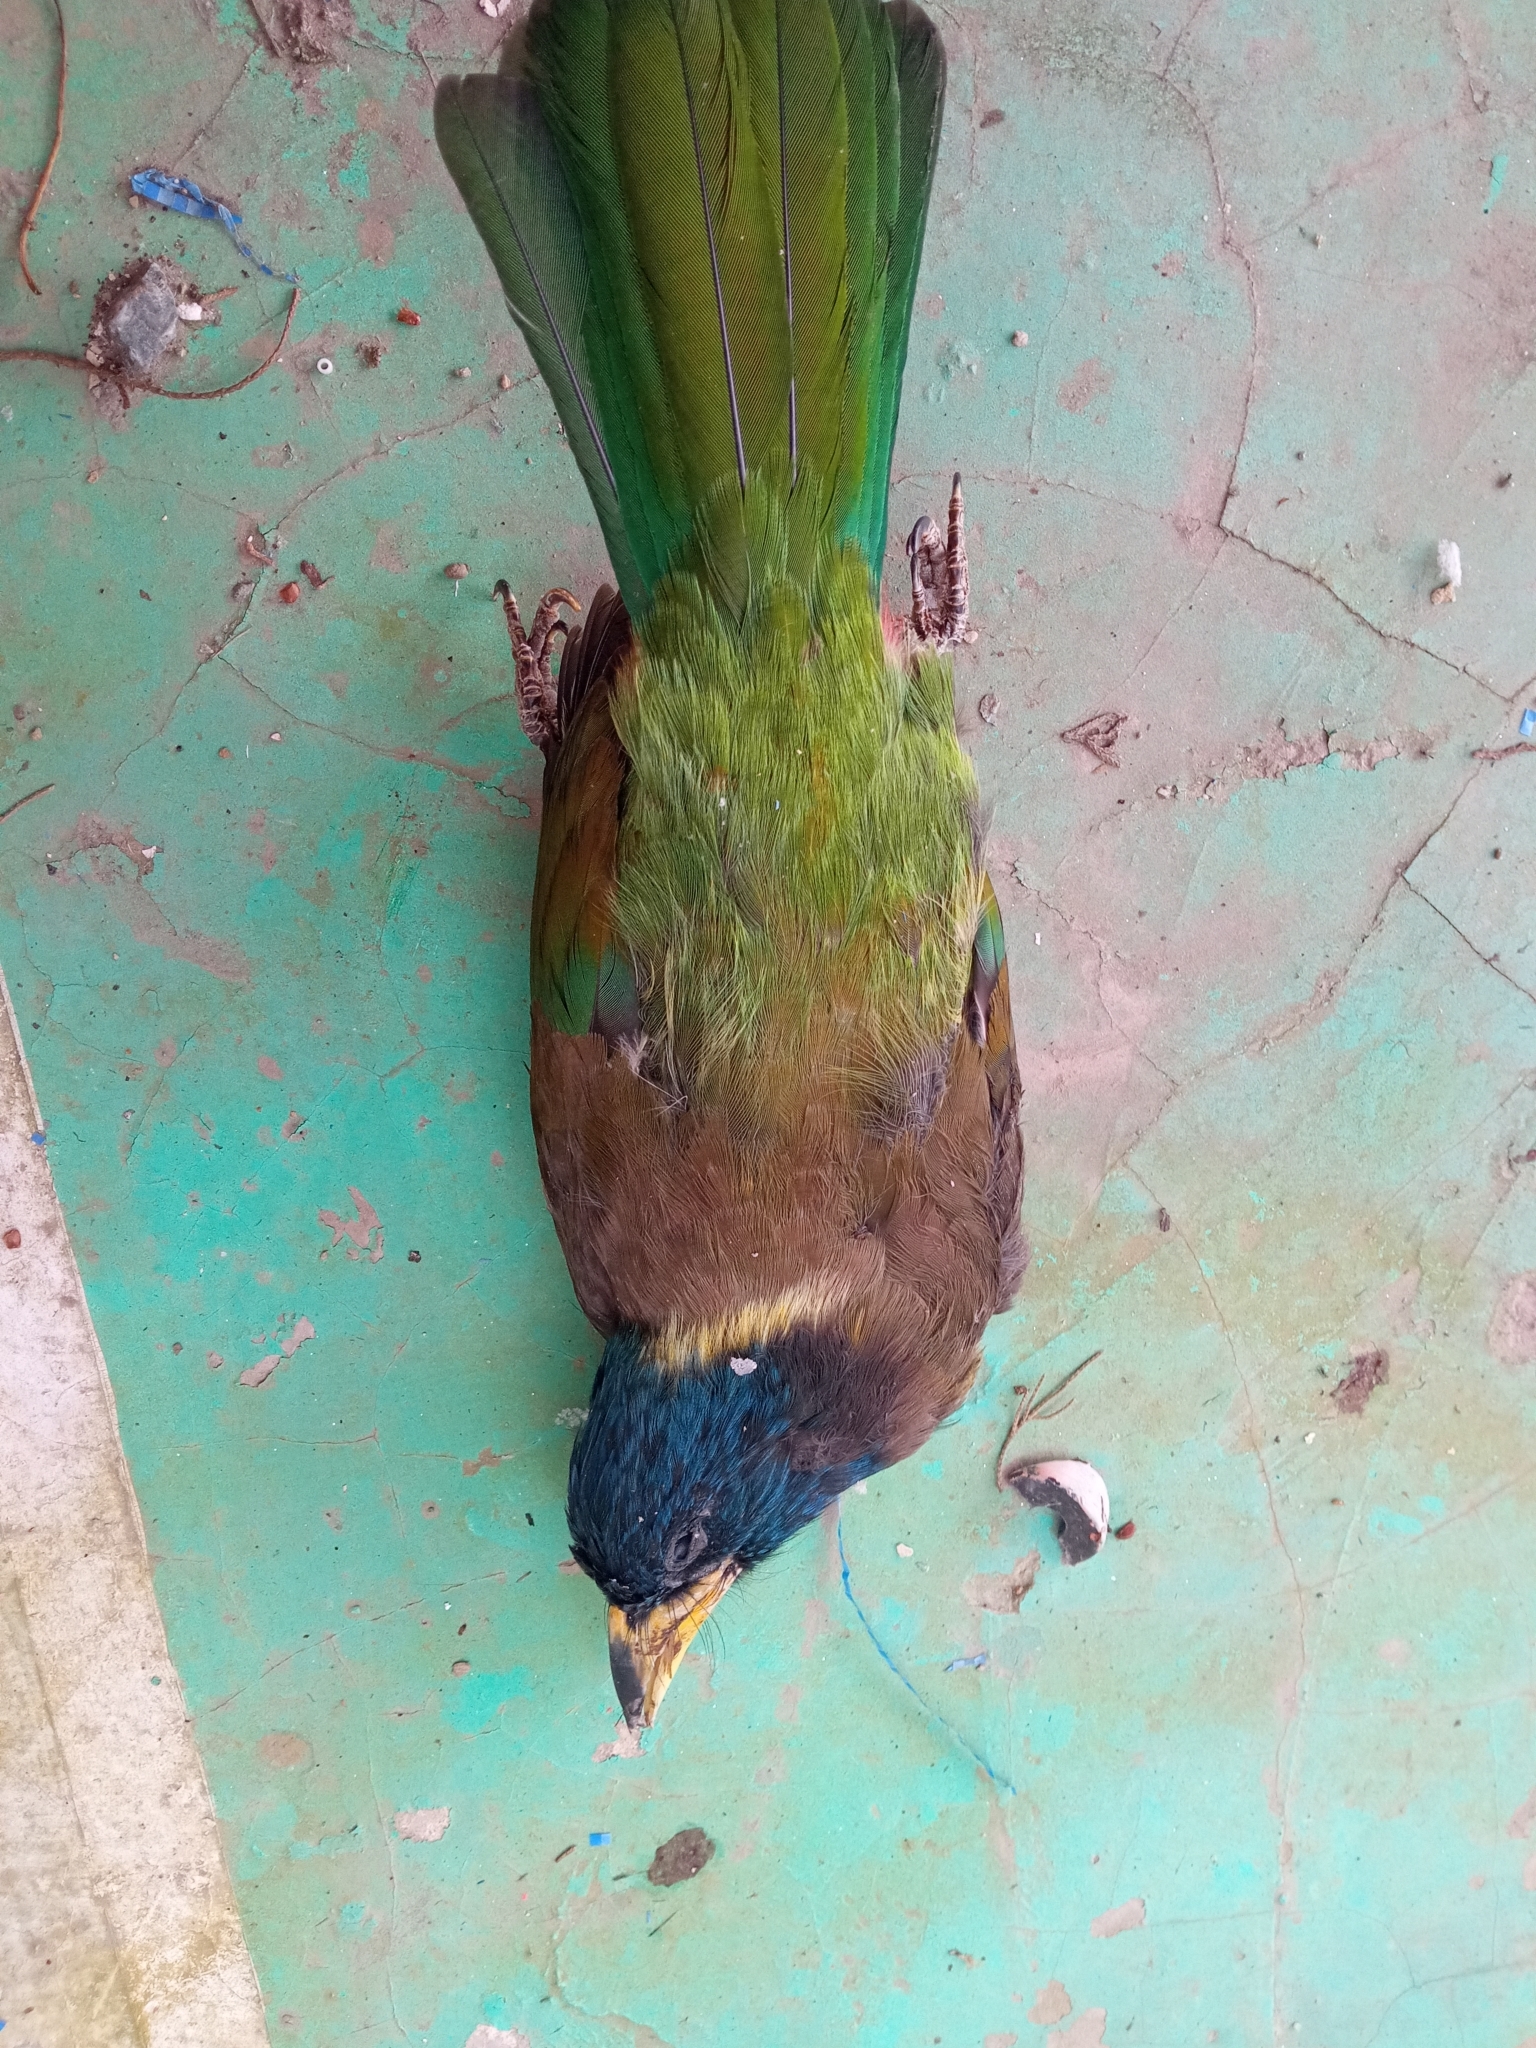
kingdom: Animalia
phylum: Chordata
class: Aves
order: Piciformes
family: Megalaimidae
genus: Psilopogon
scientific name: Psilopogon virens
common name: Great barbet
